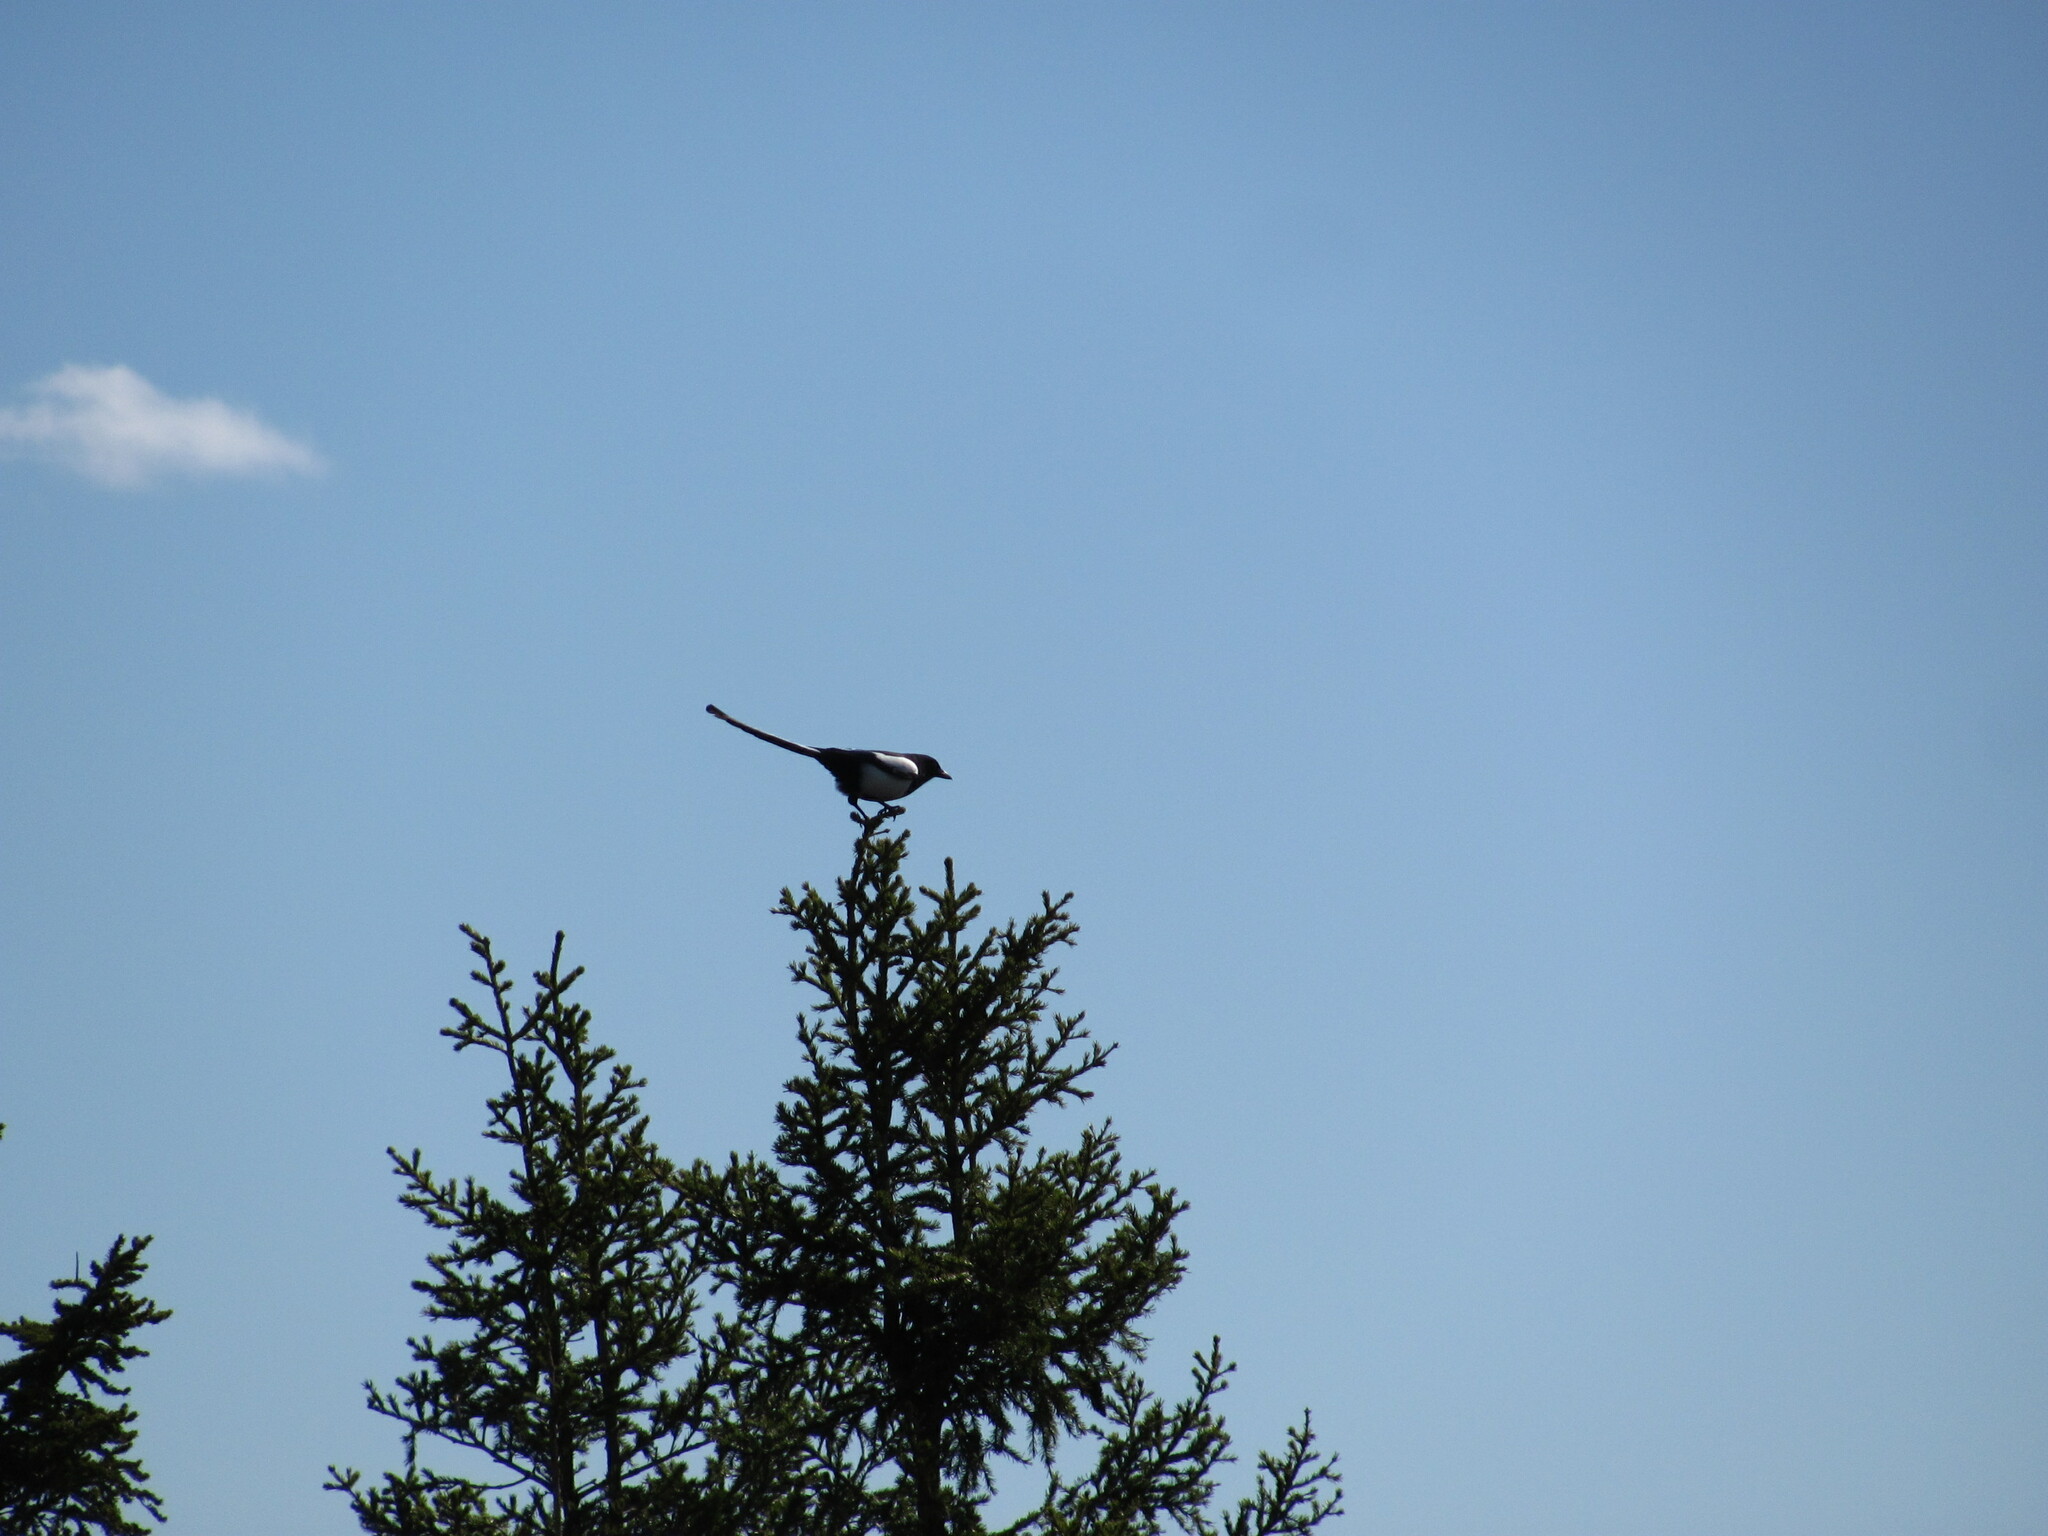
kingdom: Animalia
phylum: Chordata
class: Aves
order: Passeriformes
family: Corvidae
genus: Pica
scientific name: Pica pica
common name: Eurasian magpie
